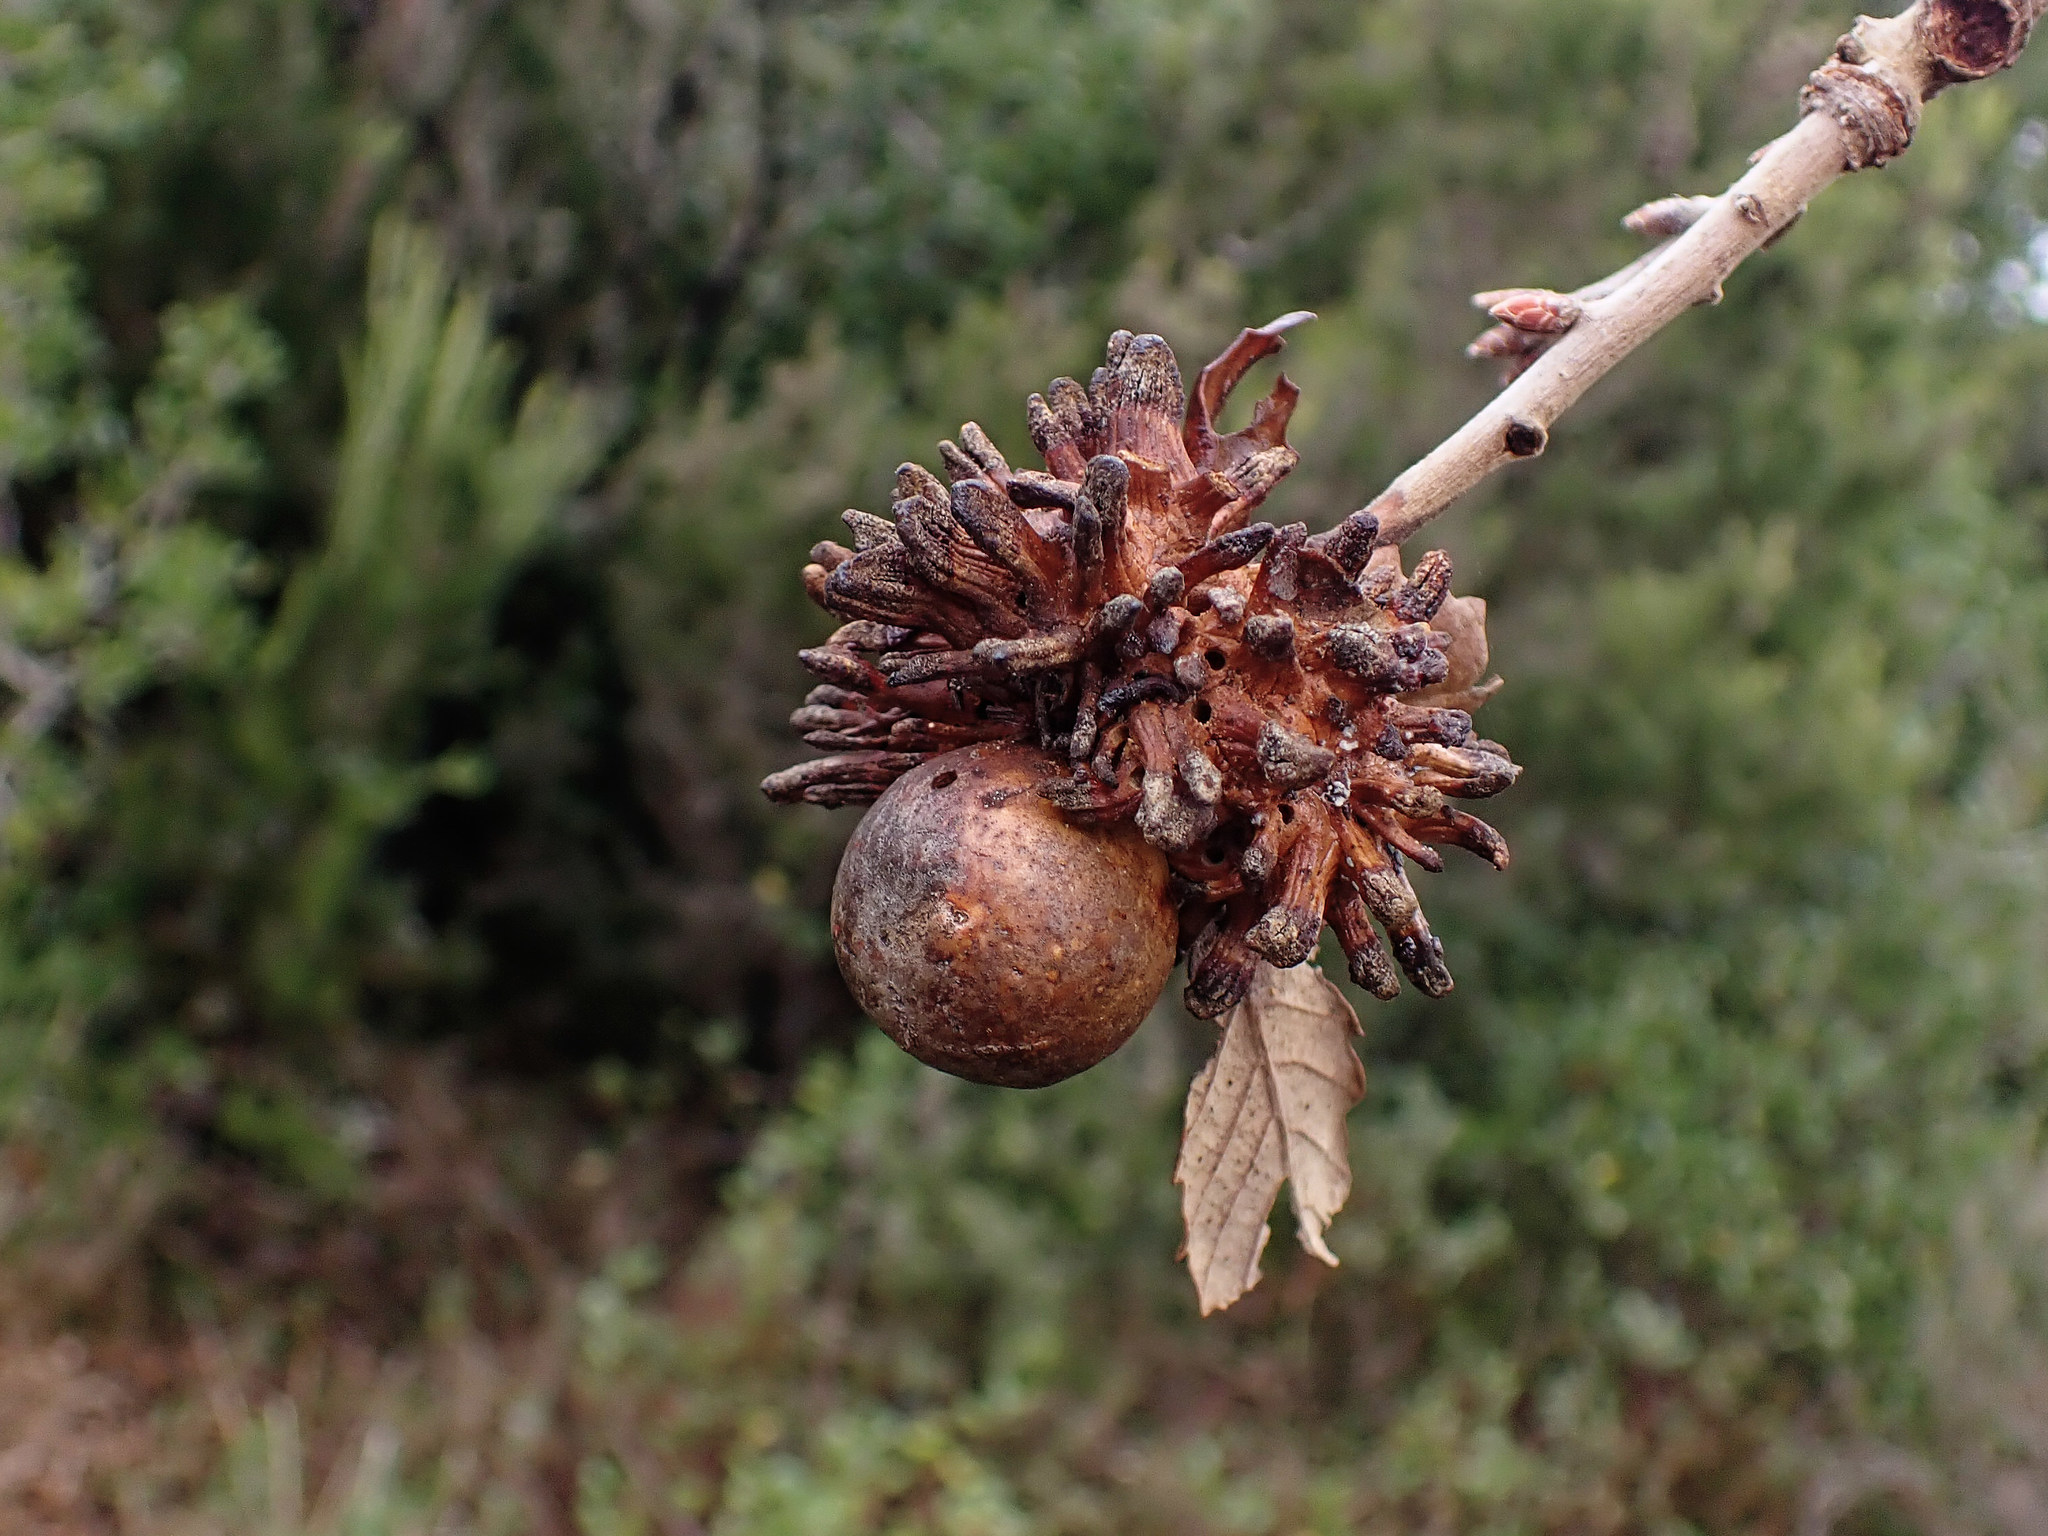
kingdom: Animalia
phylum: Arthropoda
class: Insecta
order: Hymenoptera
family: Cynipidae
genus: Andricus
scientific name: Andricus grossulariae
